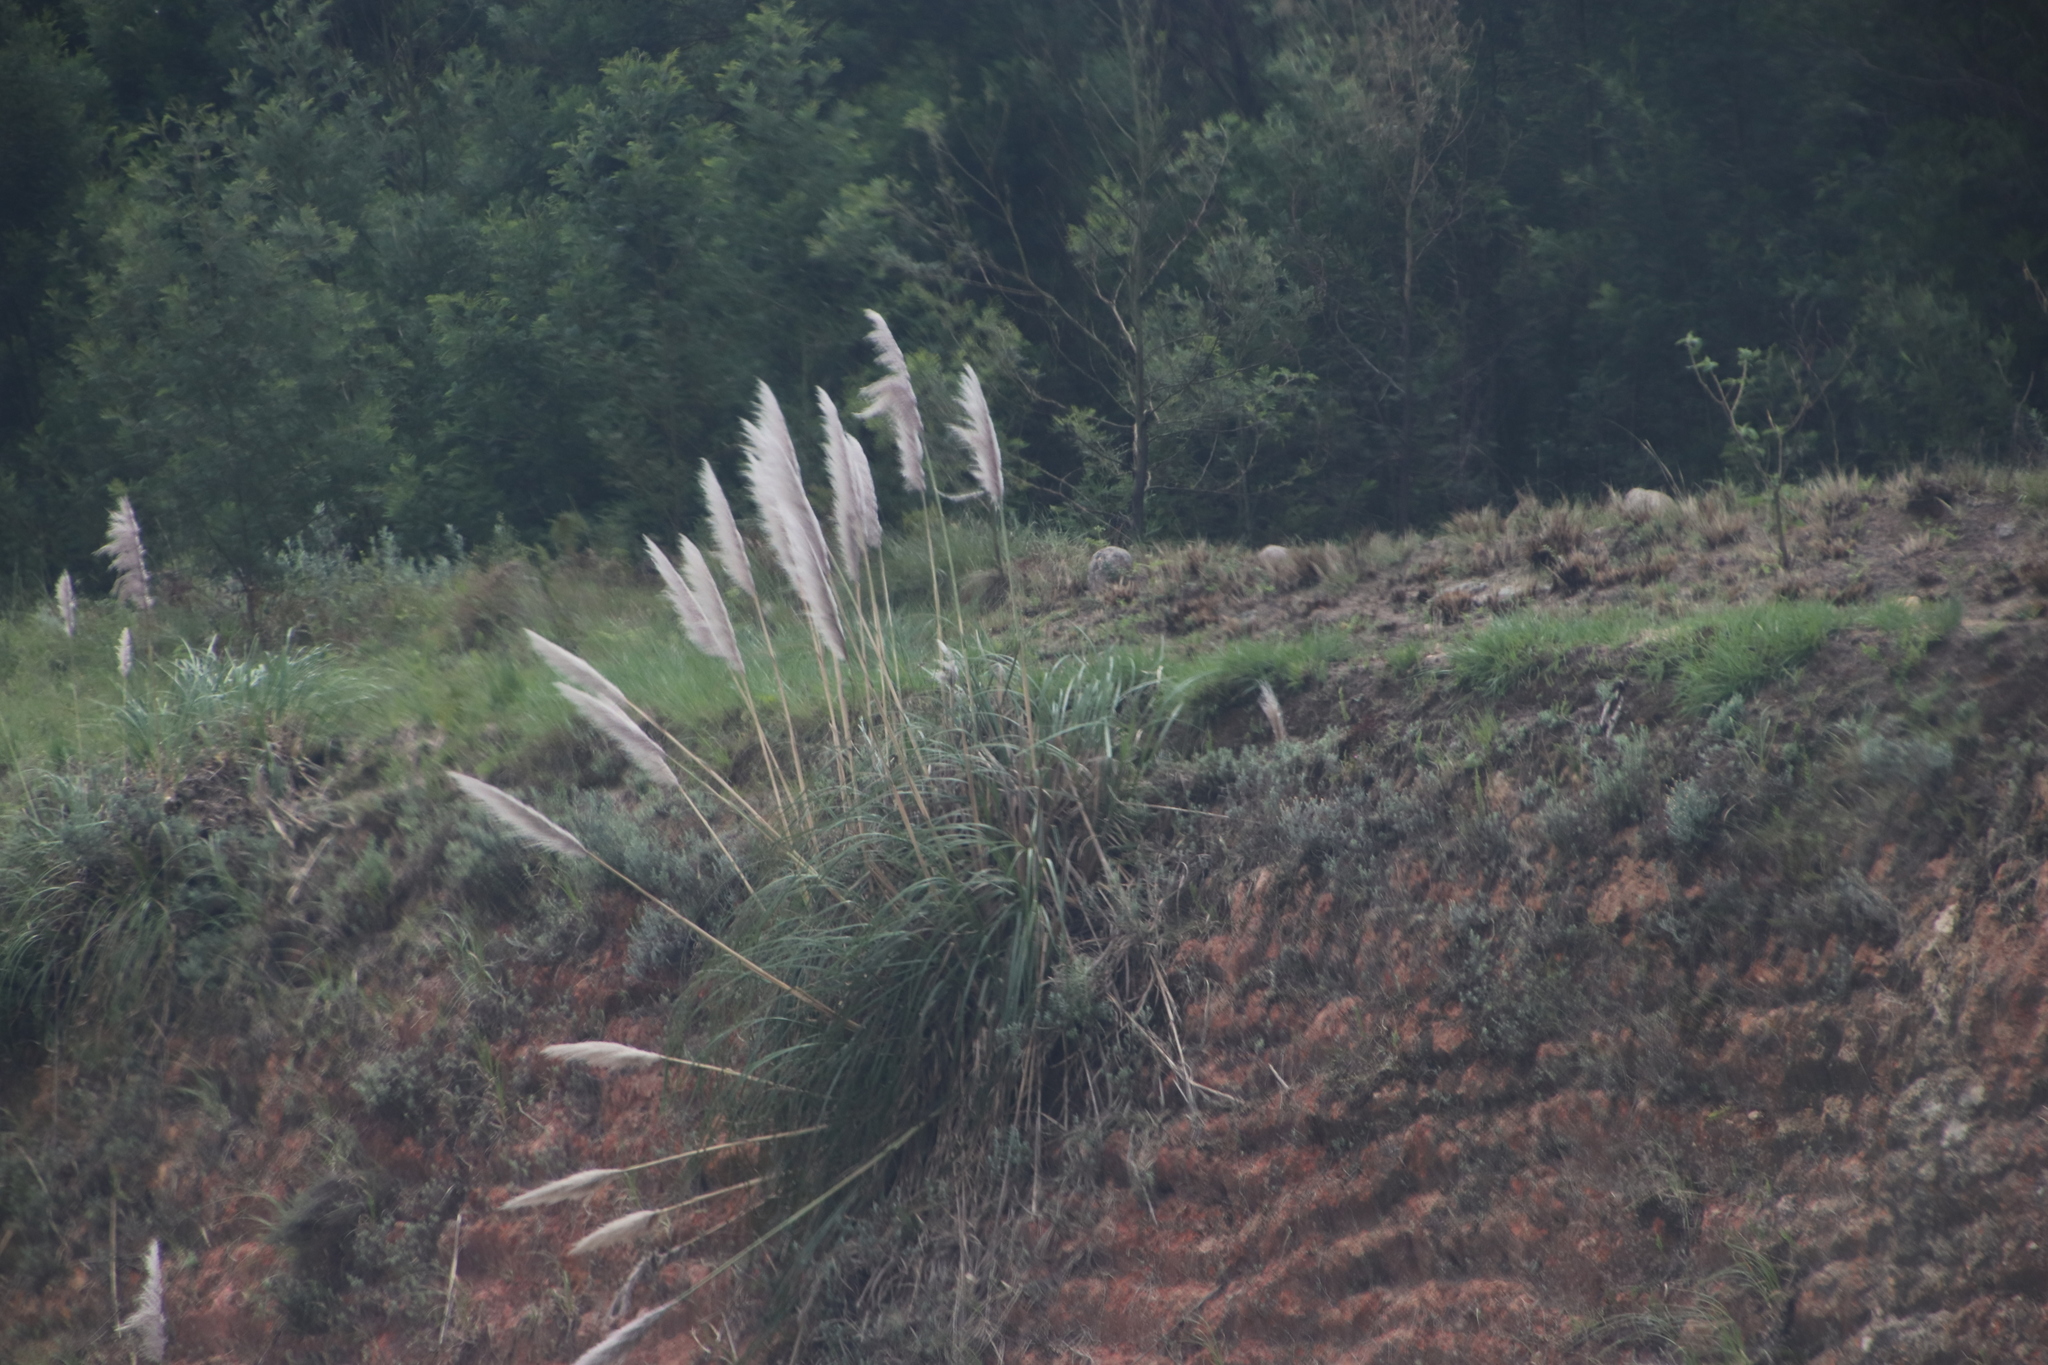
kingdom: Plantae
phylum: Tracheophyta
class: Liliopsida
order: Poales
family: Poaceae
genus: Cortaderia
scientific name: Cortaderia selloana
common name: Uruguayan pampas grass
